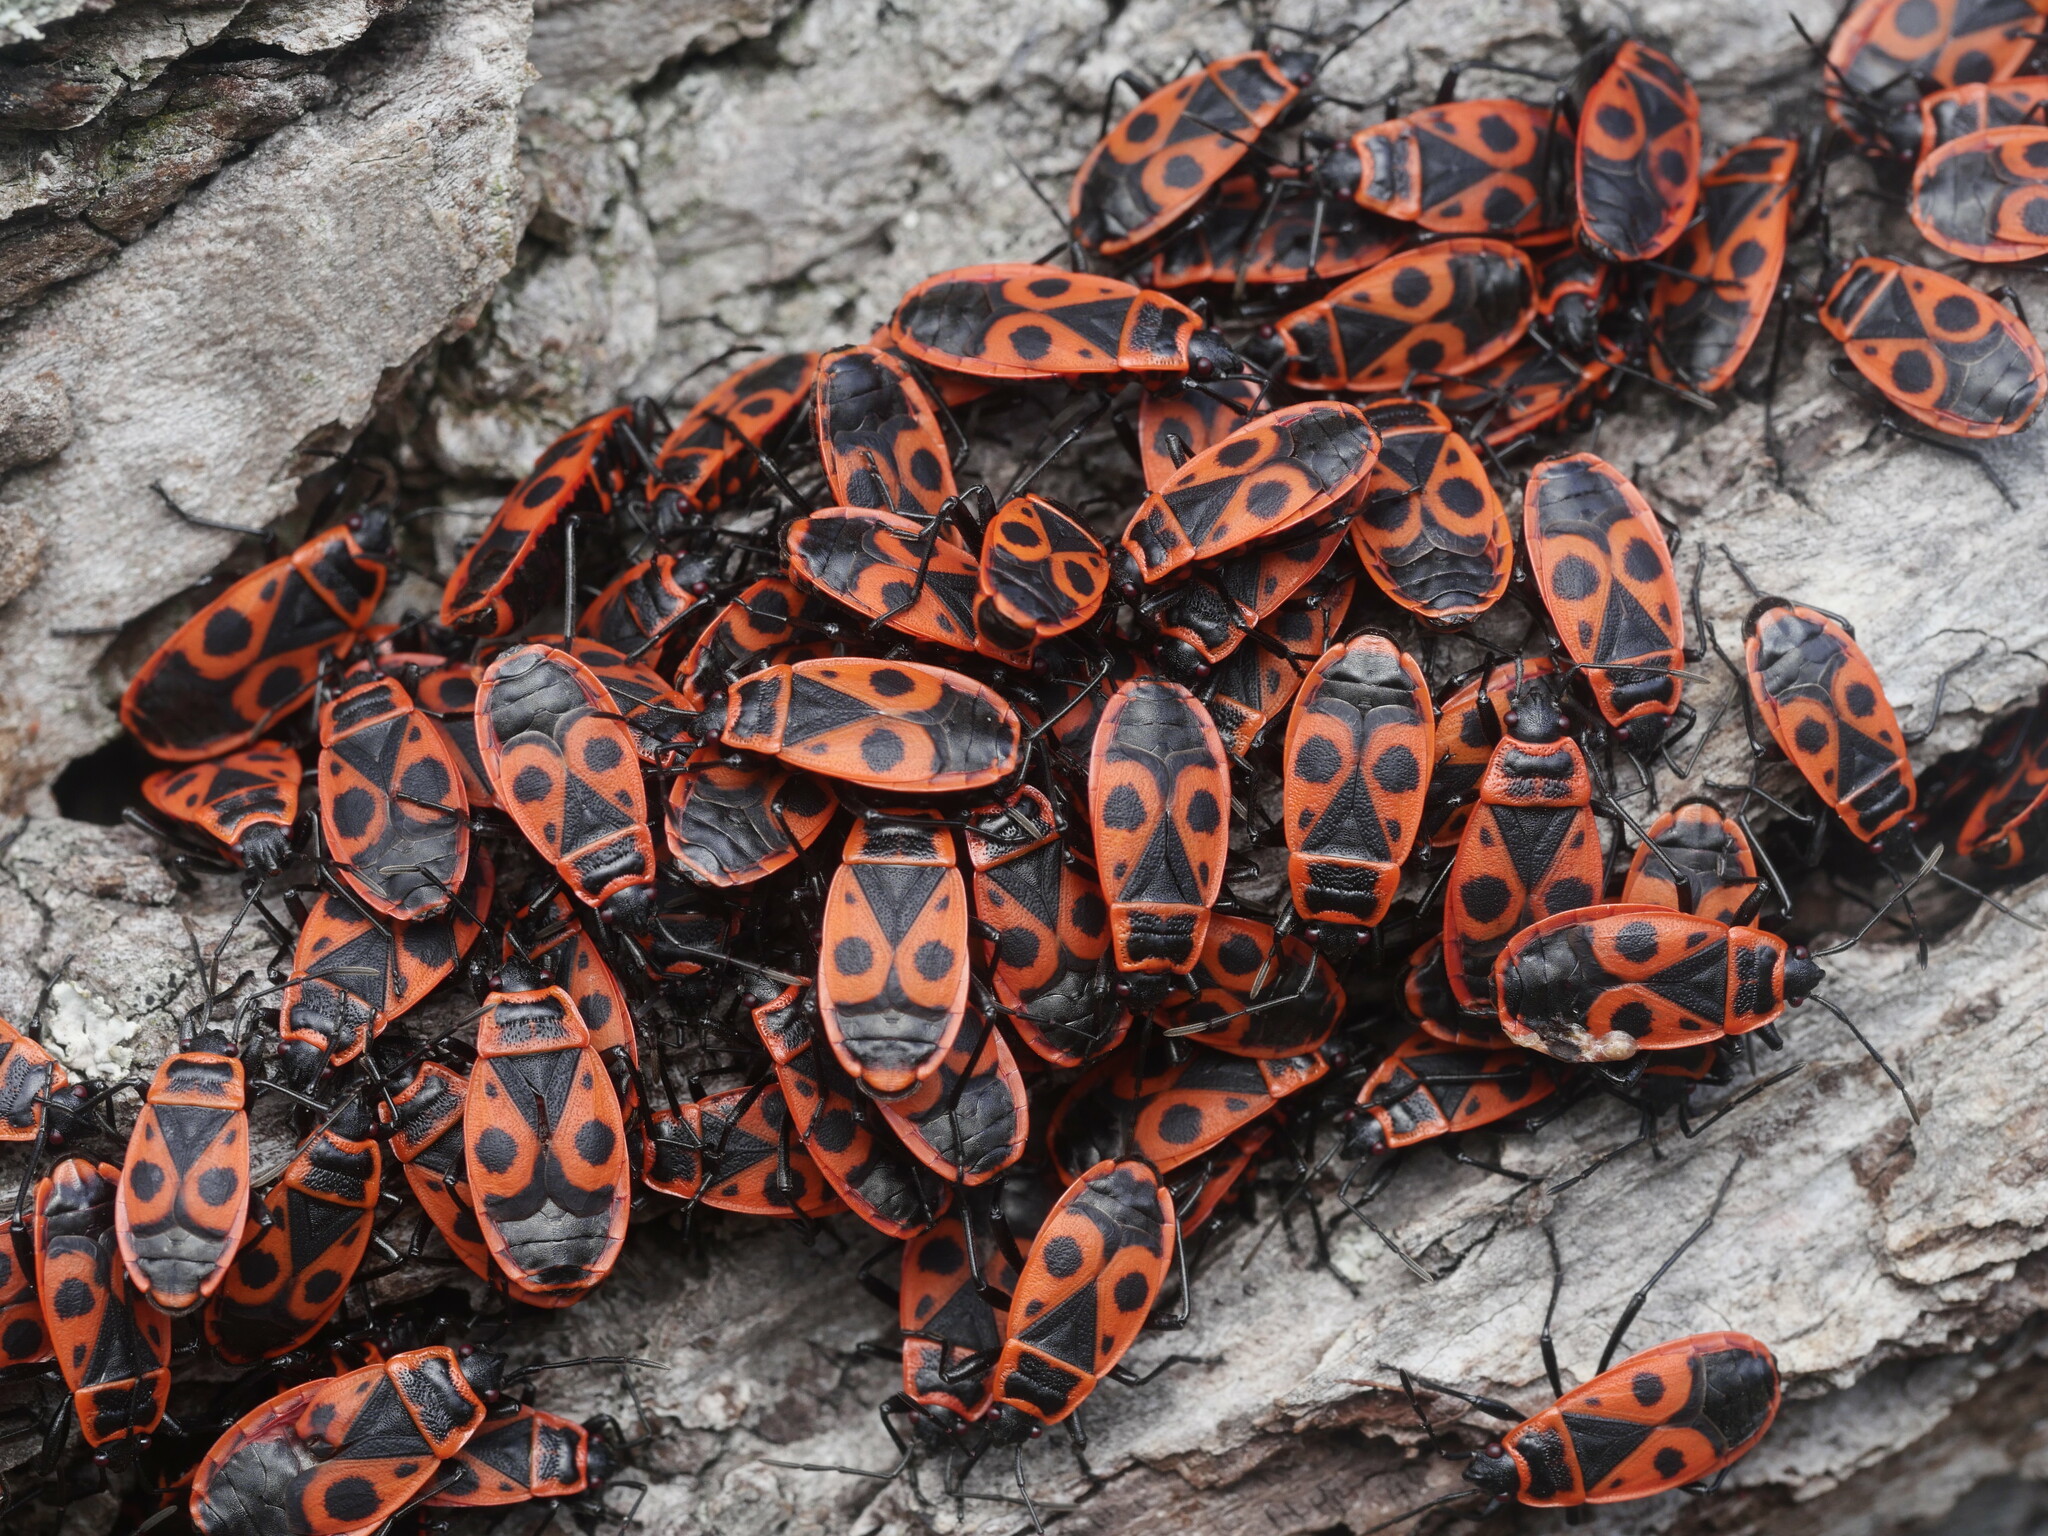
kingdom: Animalia
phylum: Arthropoda
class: Insecta
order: Hemiptera
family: Pyrrhocoridae
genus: Pyrrhocoris
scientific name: Pyrrhocoris apterus
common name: Firebug
